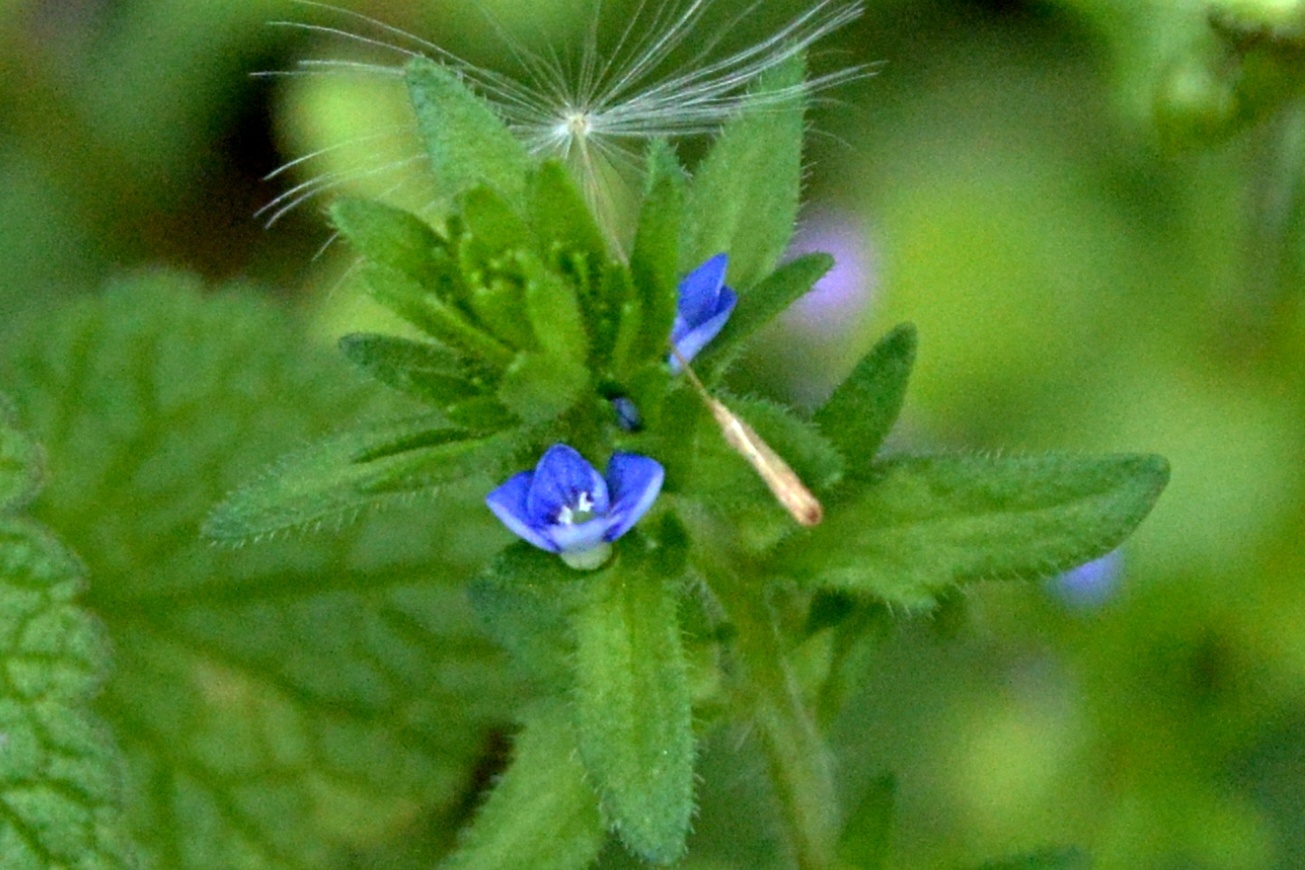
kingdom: Plantae
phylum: Tracheophyta
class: Magnoliopsida
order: Lamiales
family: Plantaginaceae
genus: Veronica
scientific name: Veronica arvensis
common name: Corn speedwell
